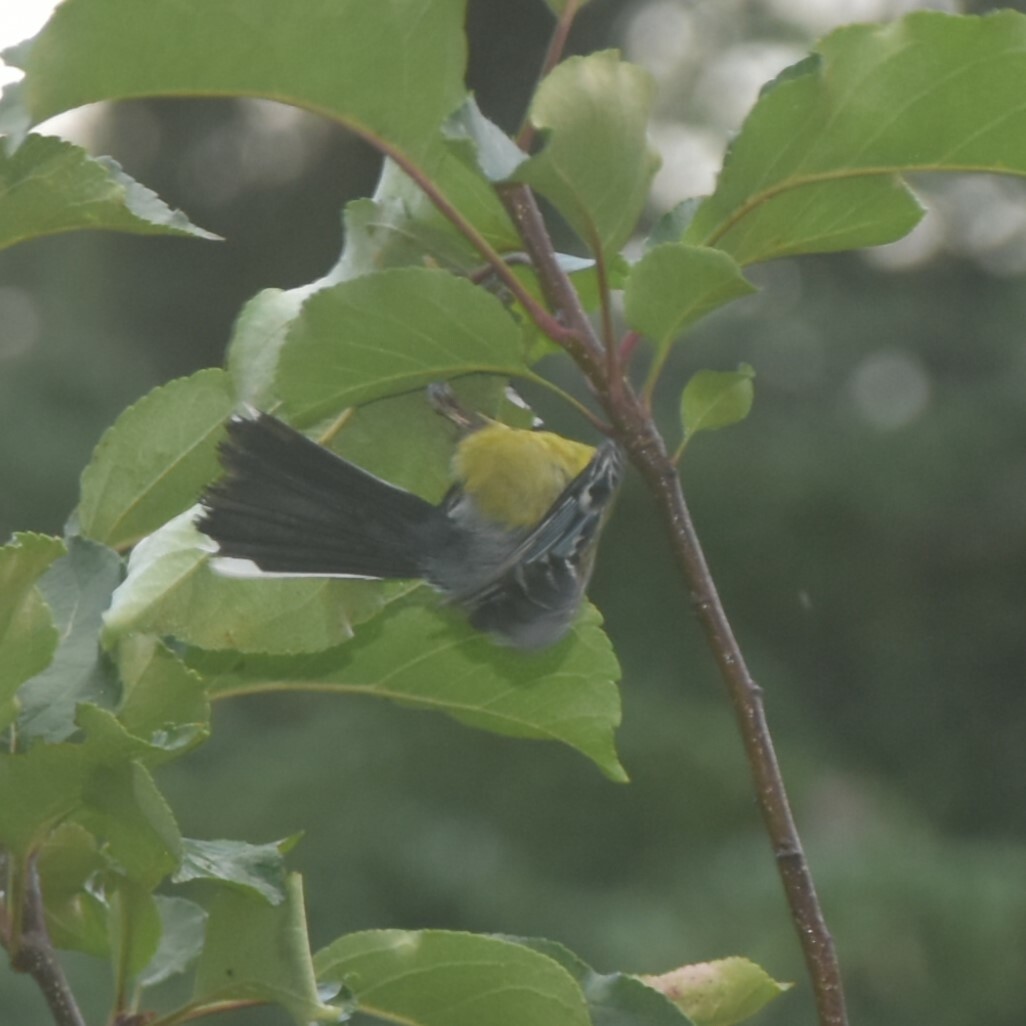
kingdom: Animalia
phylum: Chordata
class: Aves
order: Passeriformes
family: Paridae
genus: Parus
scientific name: Parus monticolus
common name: Green-backed tit
